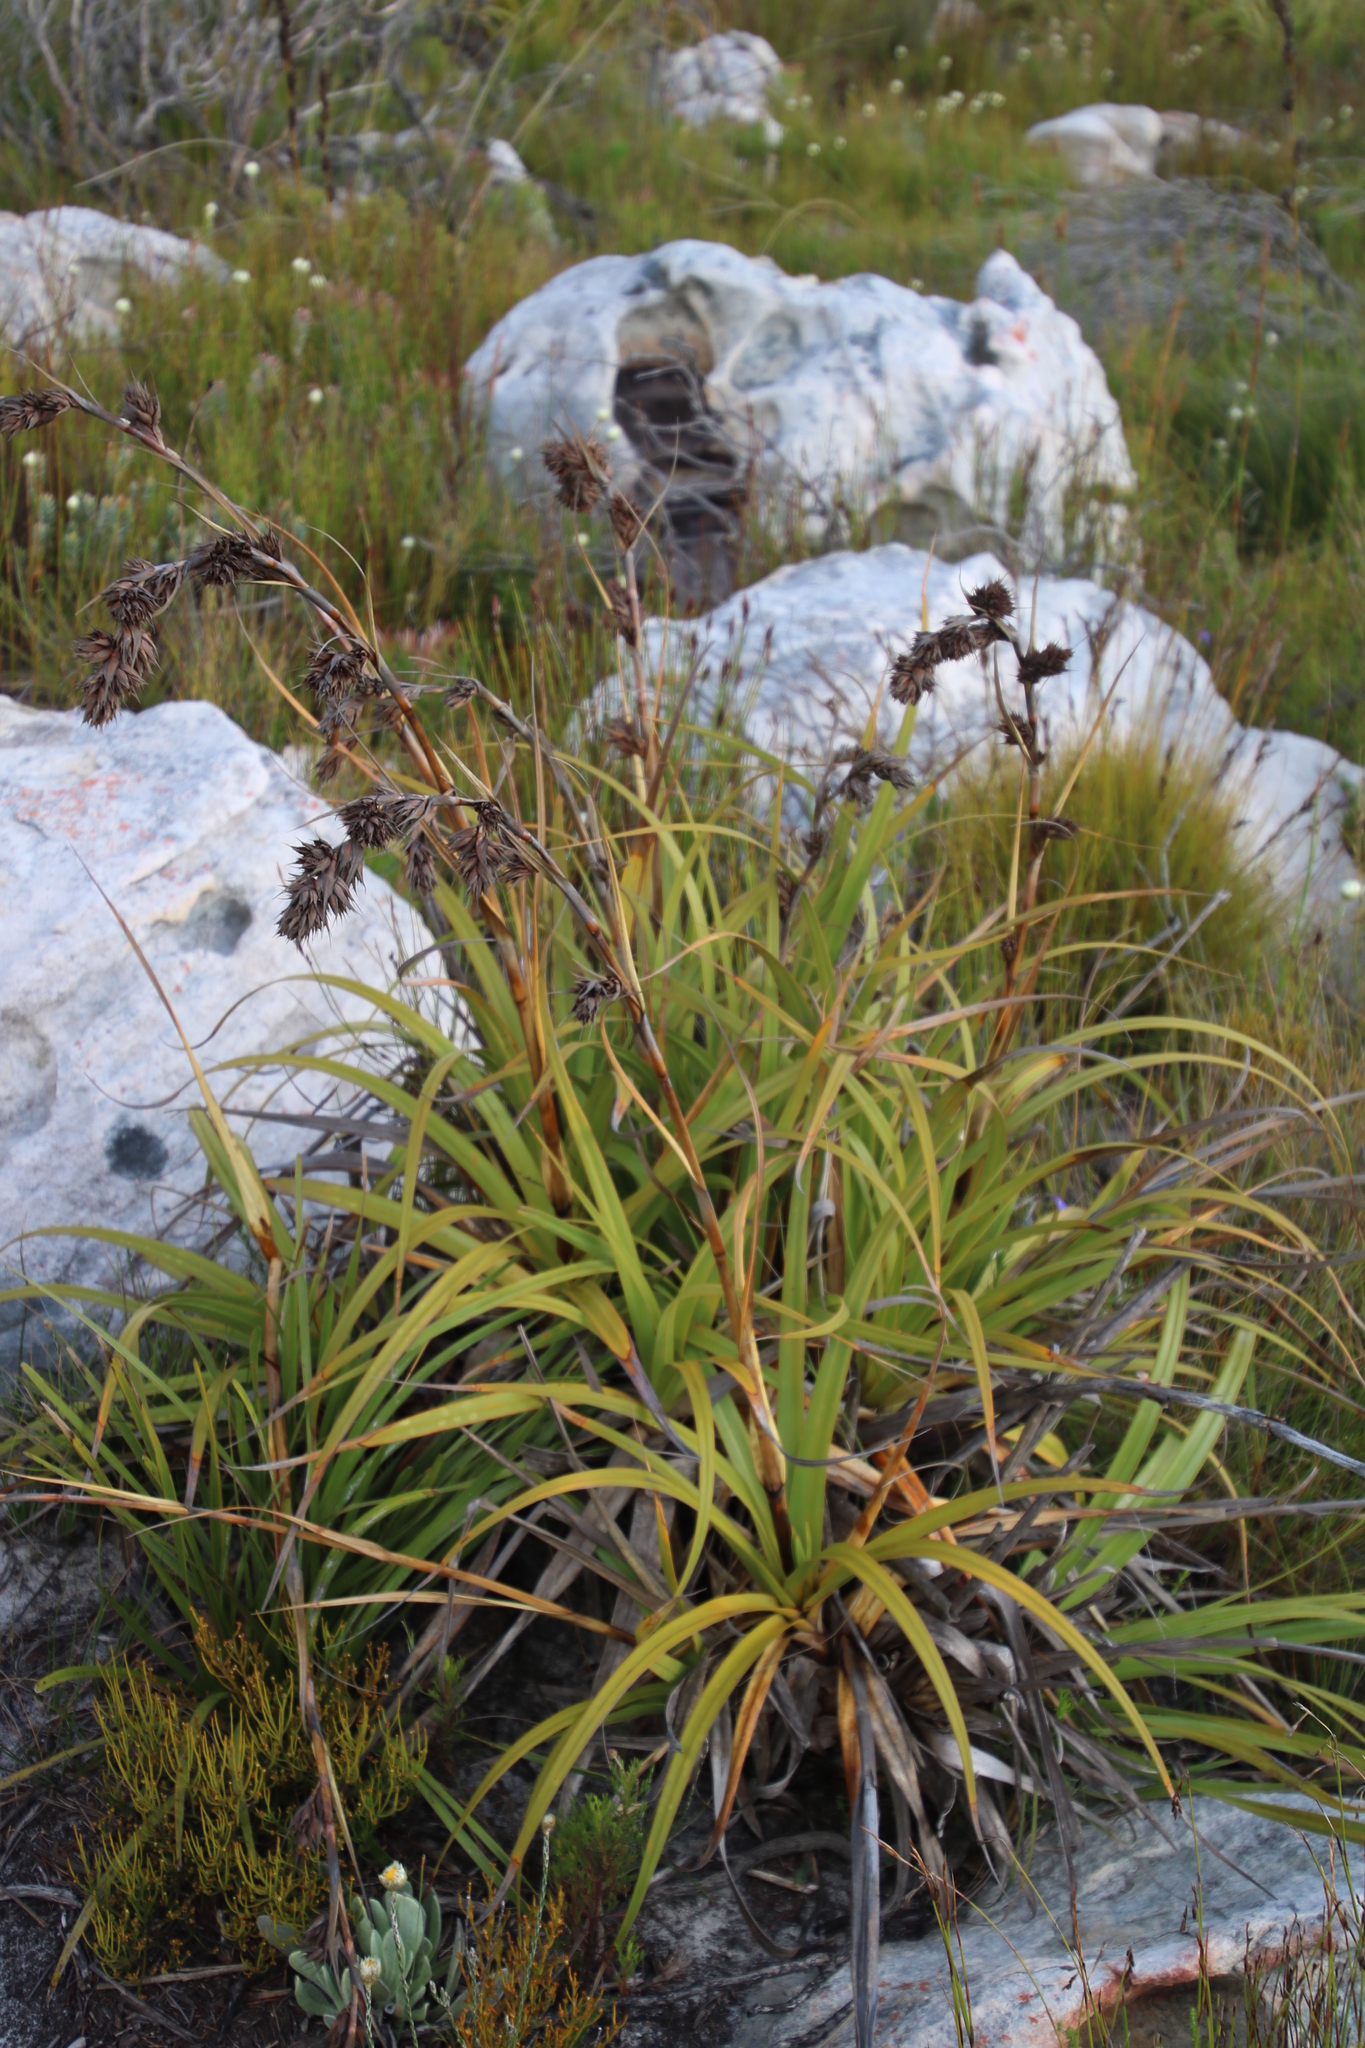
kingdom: Plantae
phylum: Tracheophyta
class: Liliopsida
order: Poales
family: Cyperaceae
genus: Tetraria
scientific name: Tetraria thermalis
